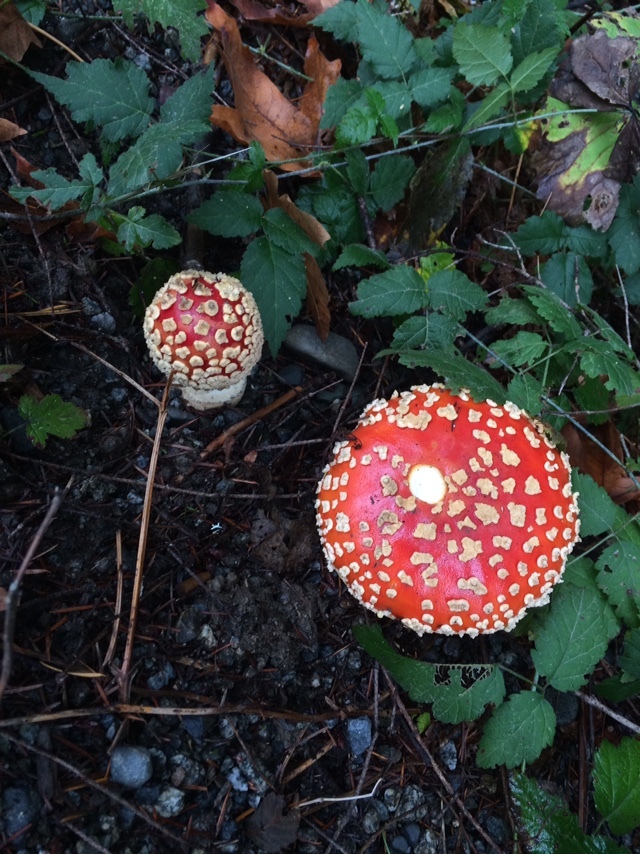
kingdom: Fungi
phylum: Basidiomycota
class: Agaricomycetes
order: Agaricales
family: Amanitaceae
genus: Amanita
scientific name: Amanita muscaria
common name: Fly agaric
